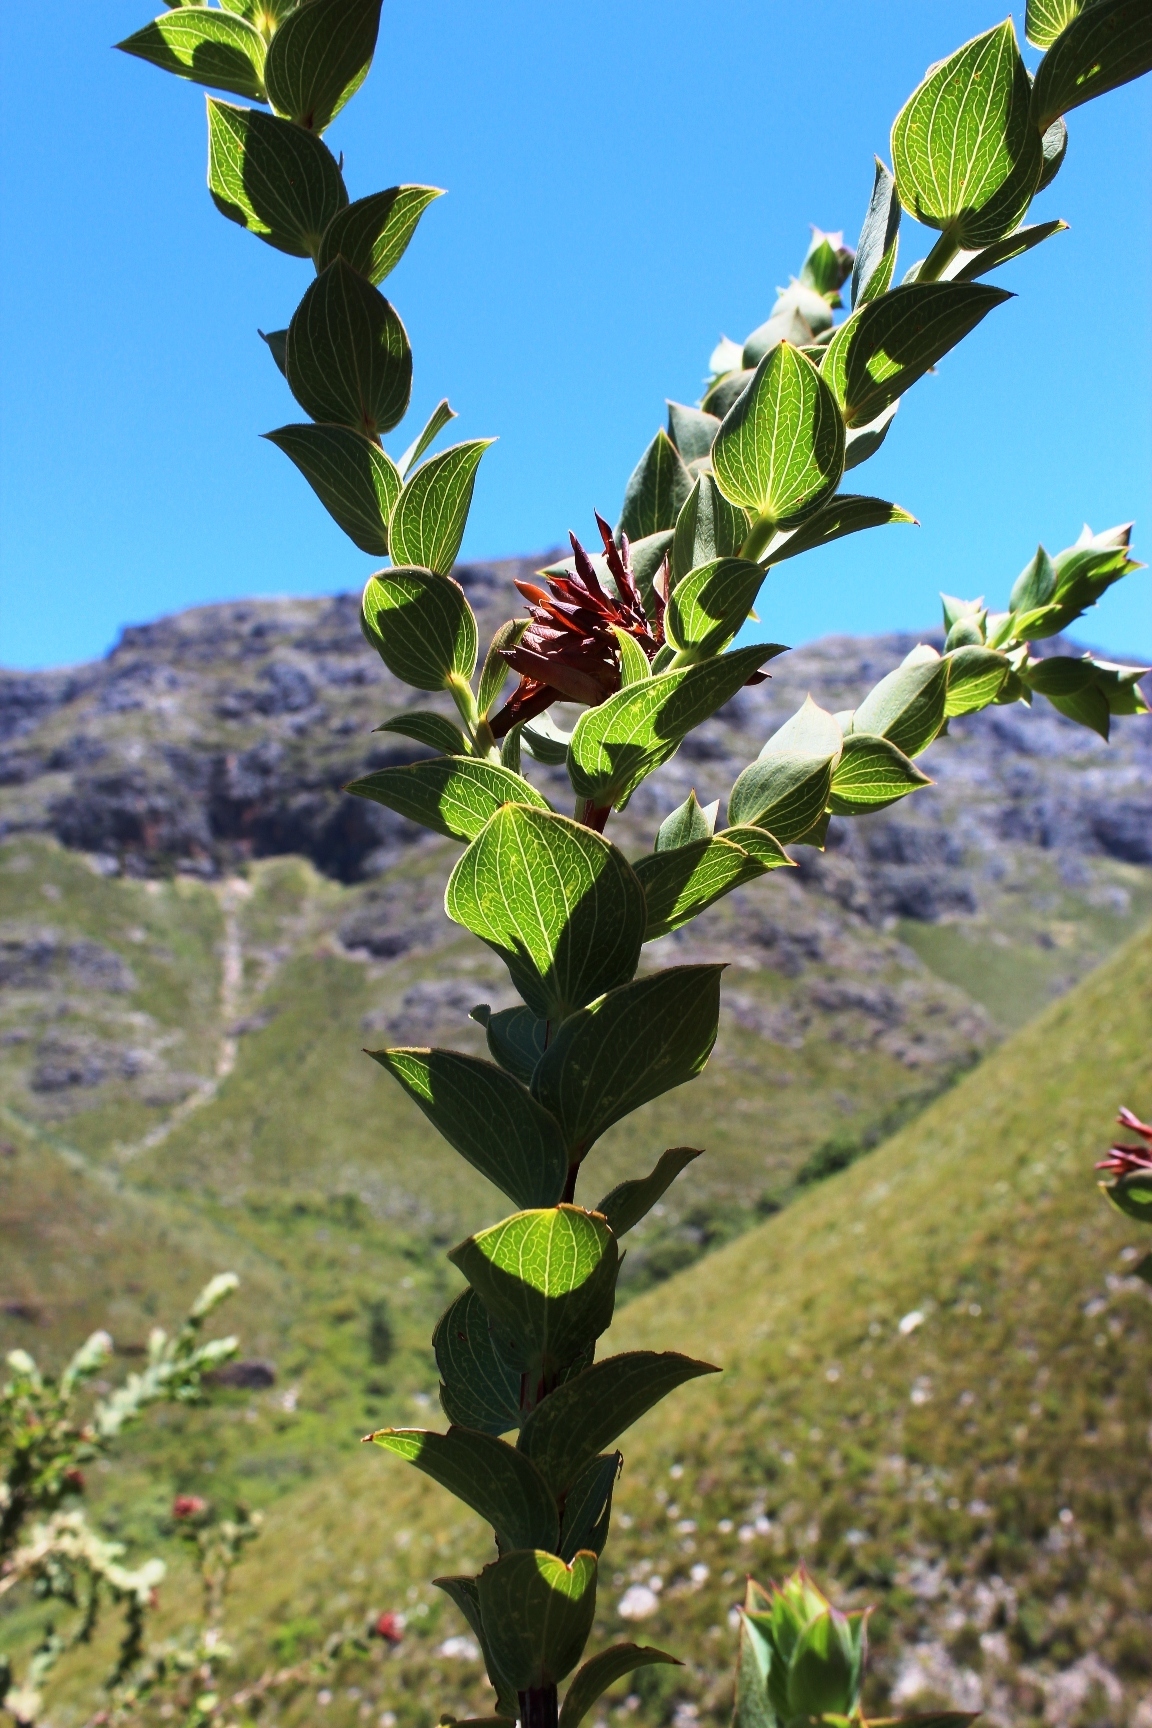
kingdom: Plantae
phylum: Tracheophyta
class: Magnoliopsida
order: Fabales
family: Fabaceae
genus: Aspalathus
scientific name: Aspalathus crenata
